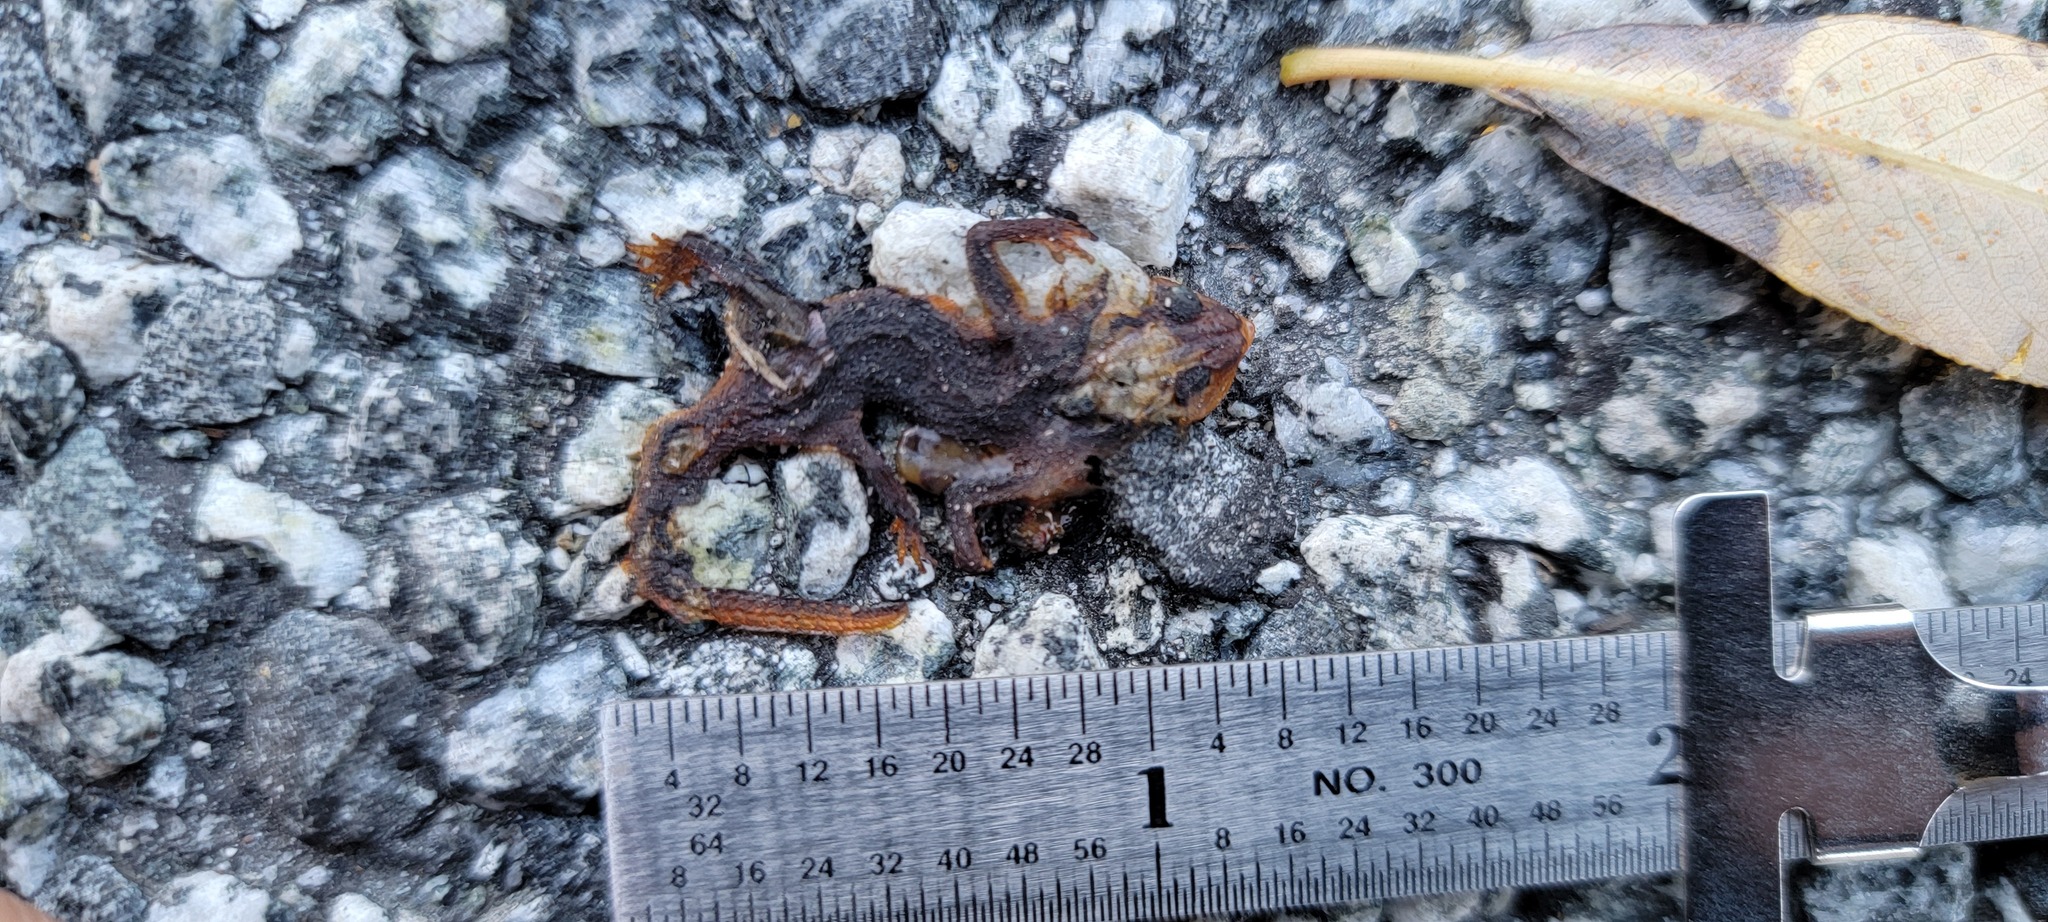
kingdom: Animalia
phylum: Chordata
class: Amphibia
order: Caudata
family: Salamandridae
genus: Taricha
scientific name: Taricha
